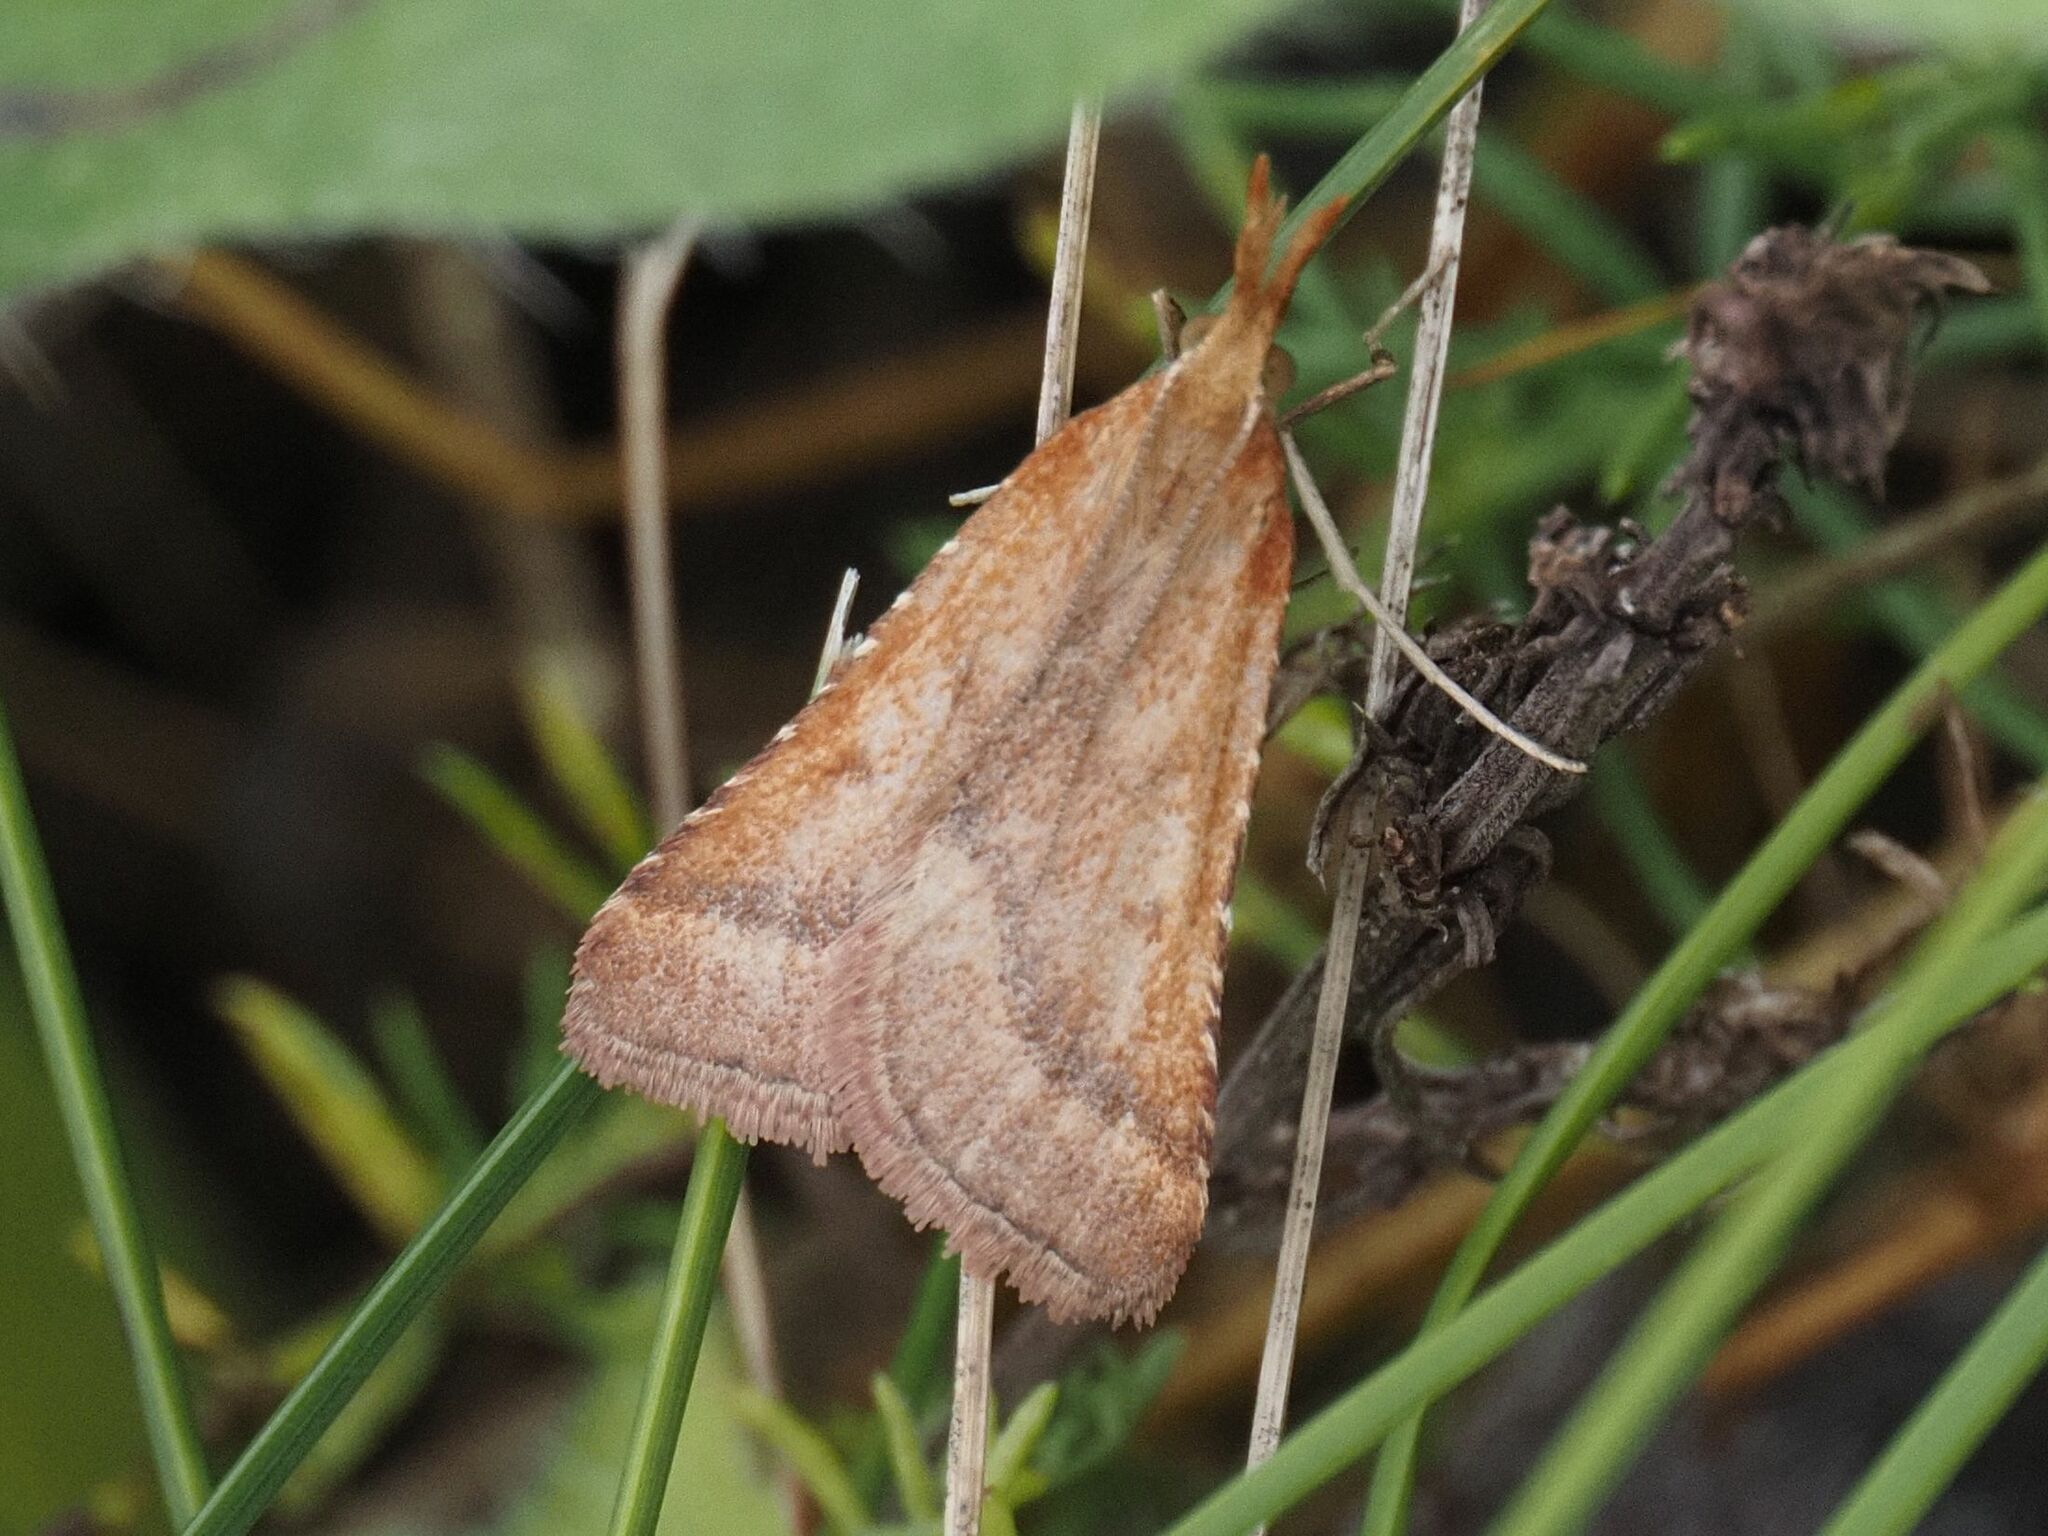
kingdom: Animalia
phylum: Arthropoda
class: Insecta
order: Lepidoptera
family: Pyralidae
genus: Synaphe
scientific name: Synaphe punctalis
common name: Long-legged tabby
